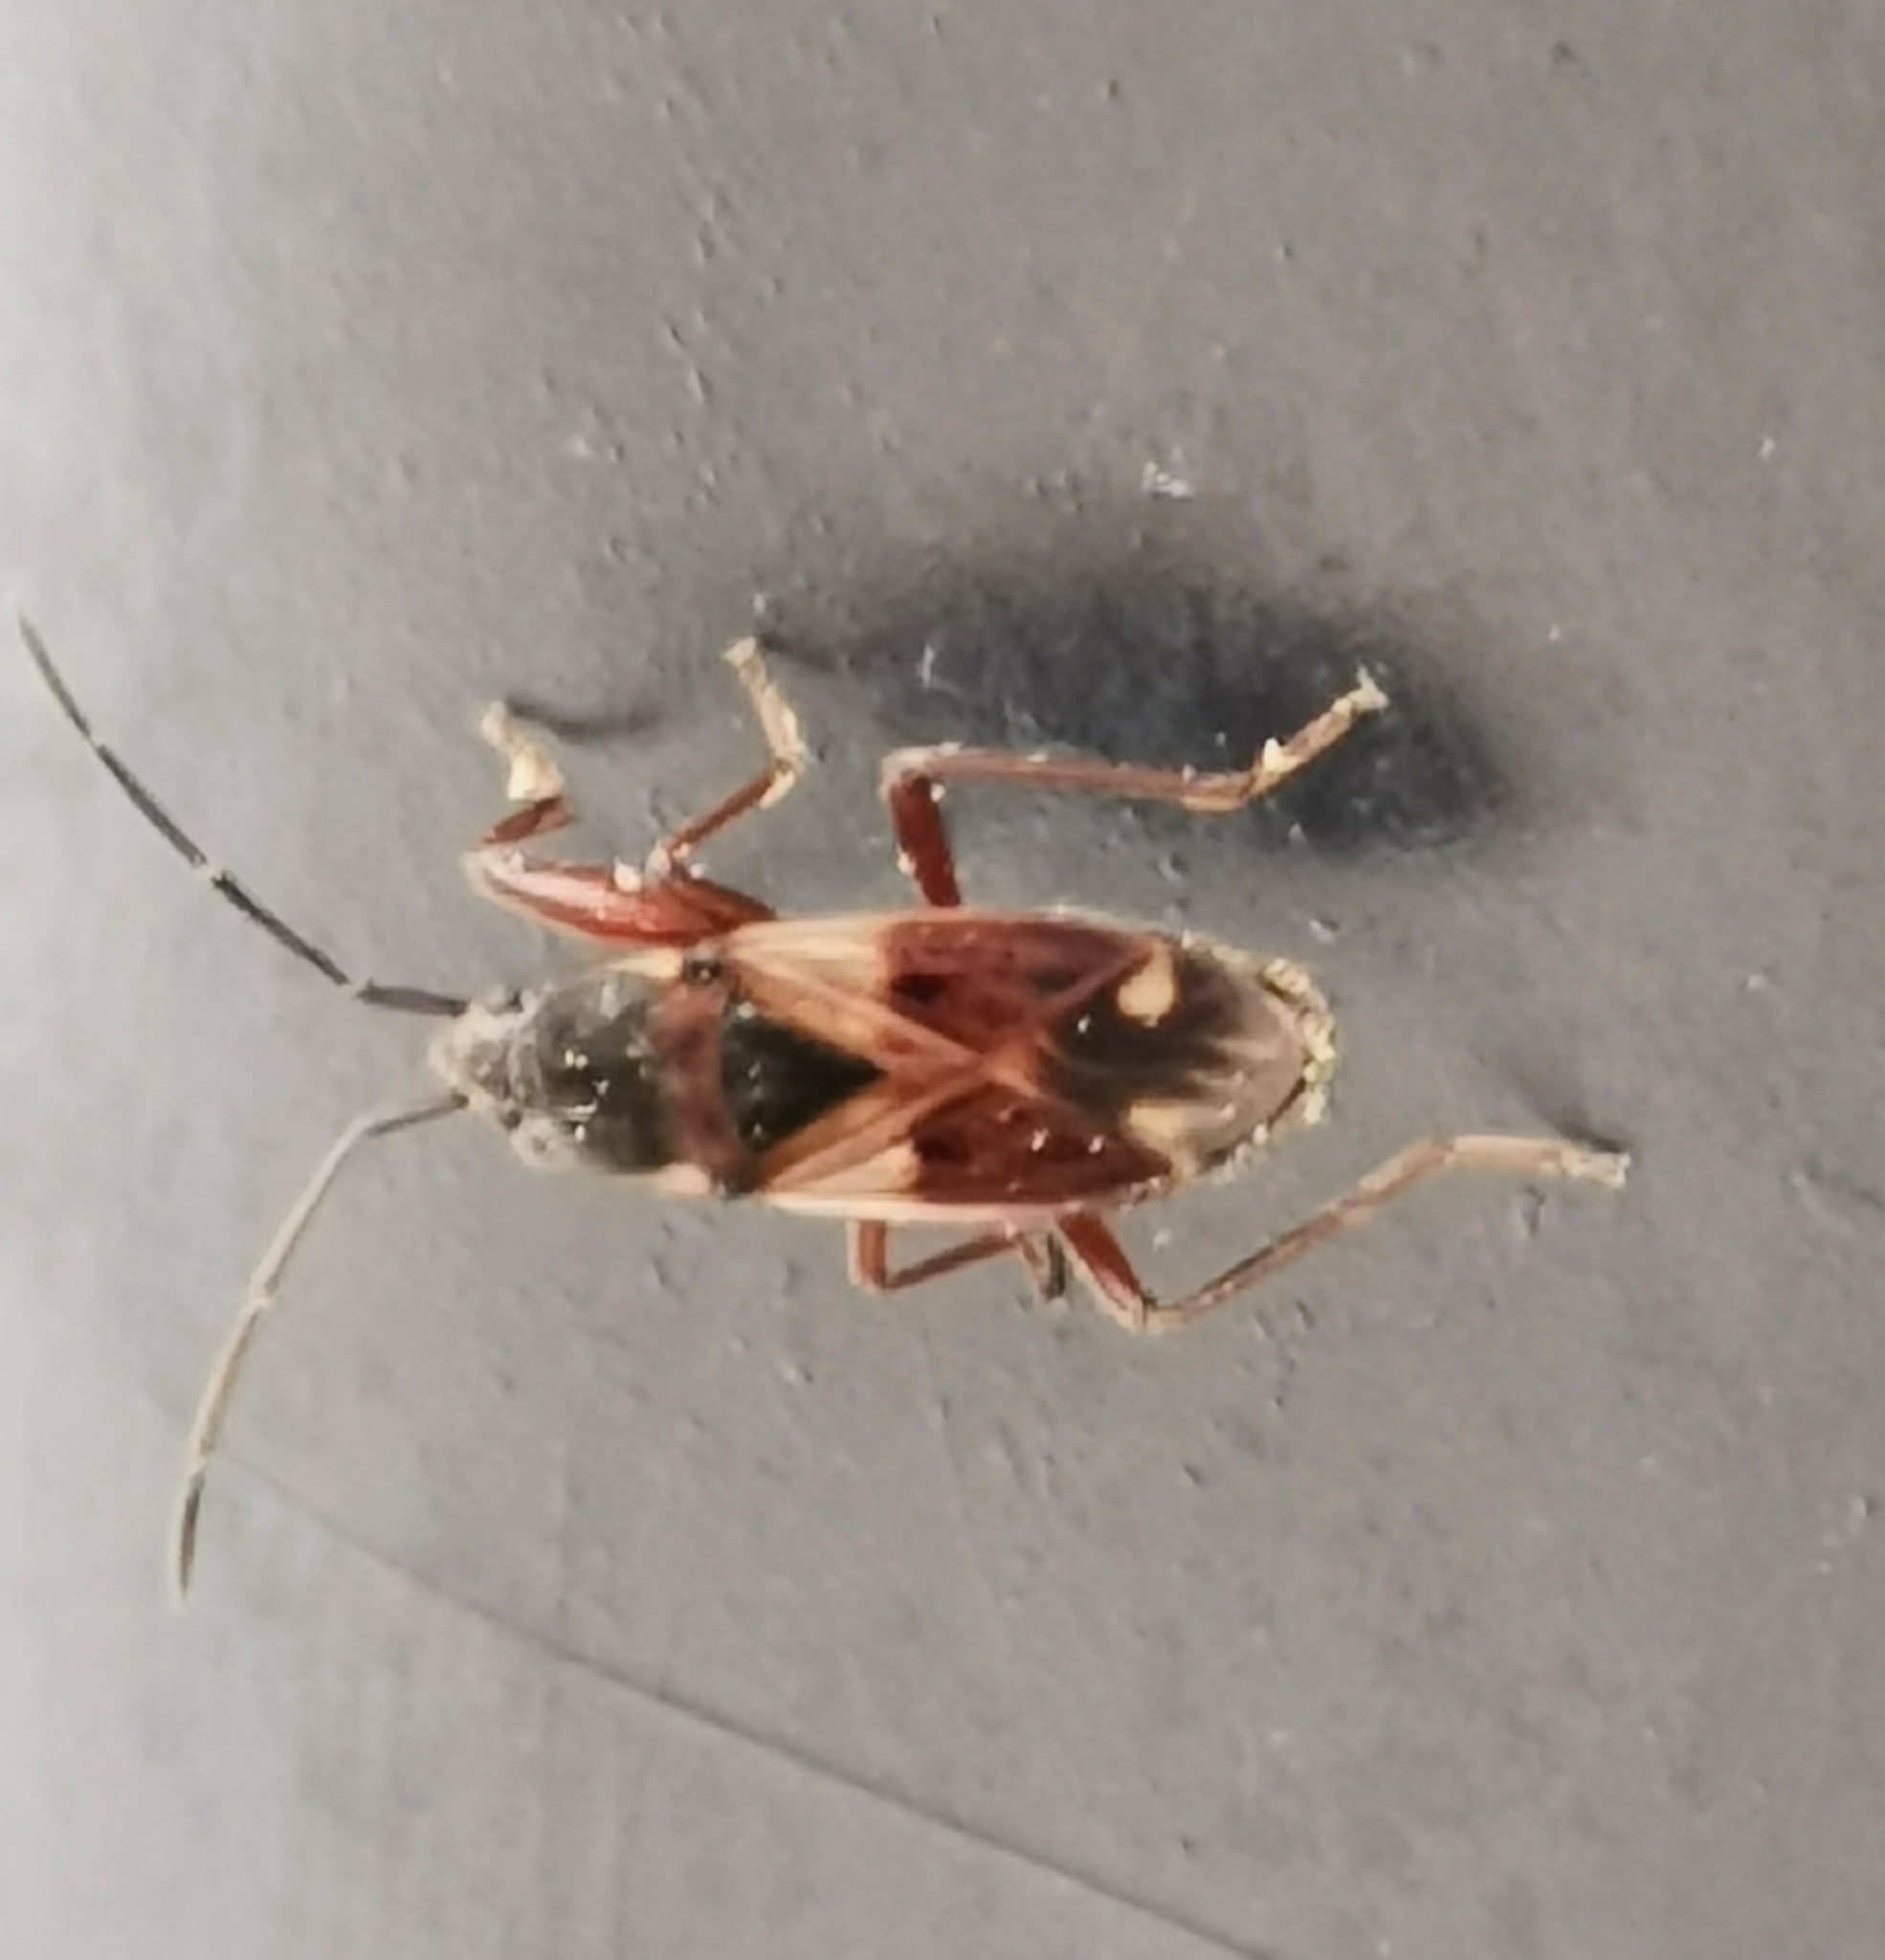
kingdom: Animalia
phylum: Arthropoda
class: Insecta
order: Hemiptera
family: Rhyparochromidae
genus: Eremocoris
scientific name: Eremocoris abietis
